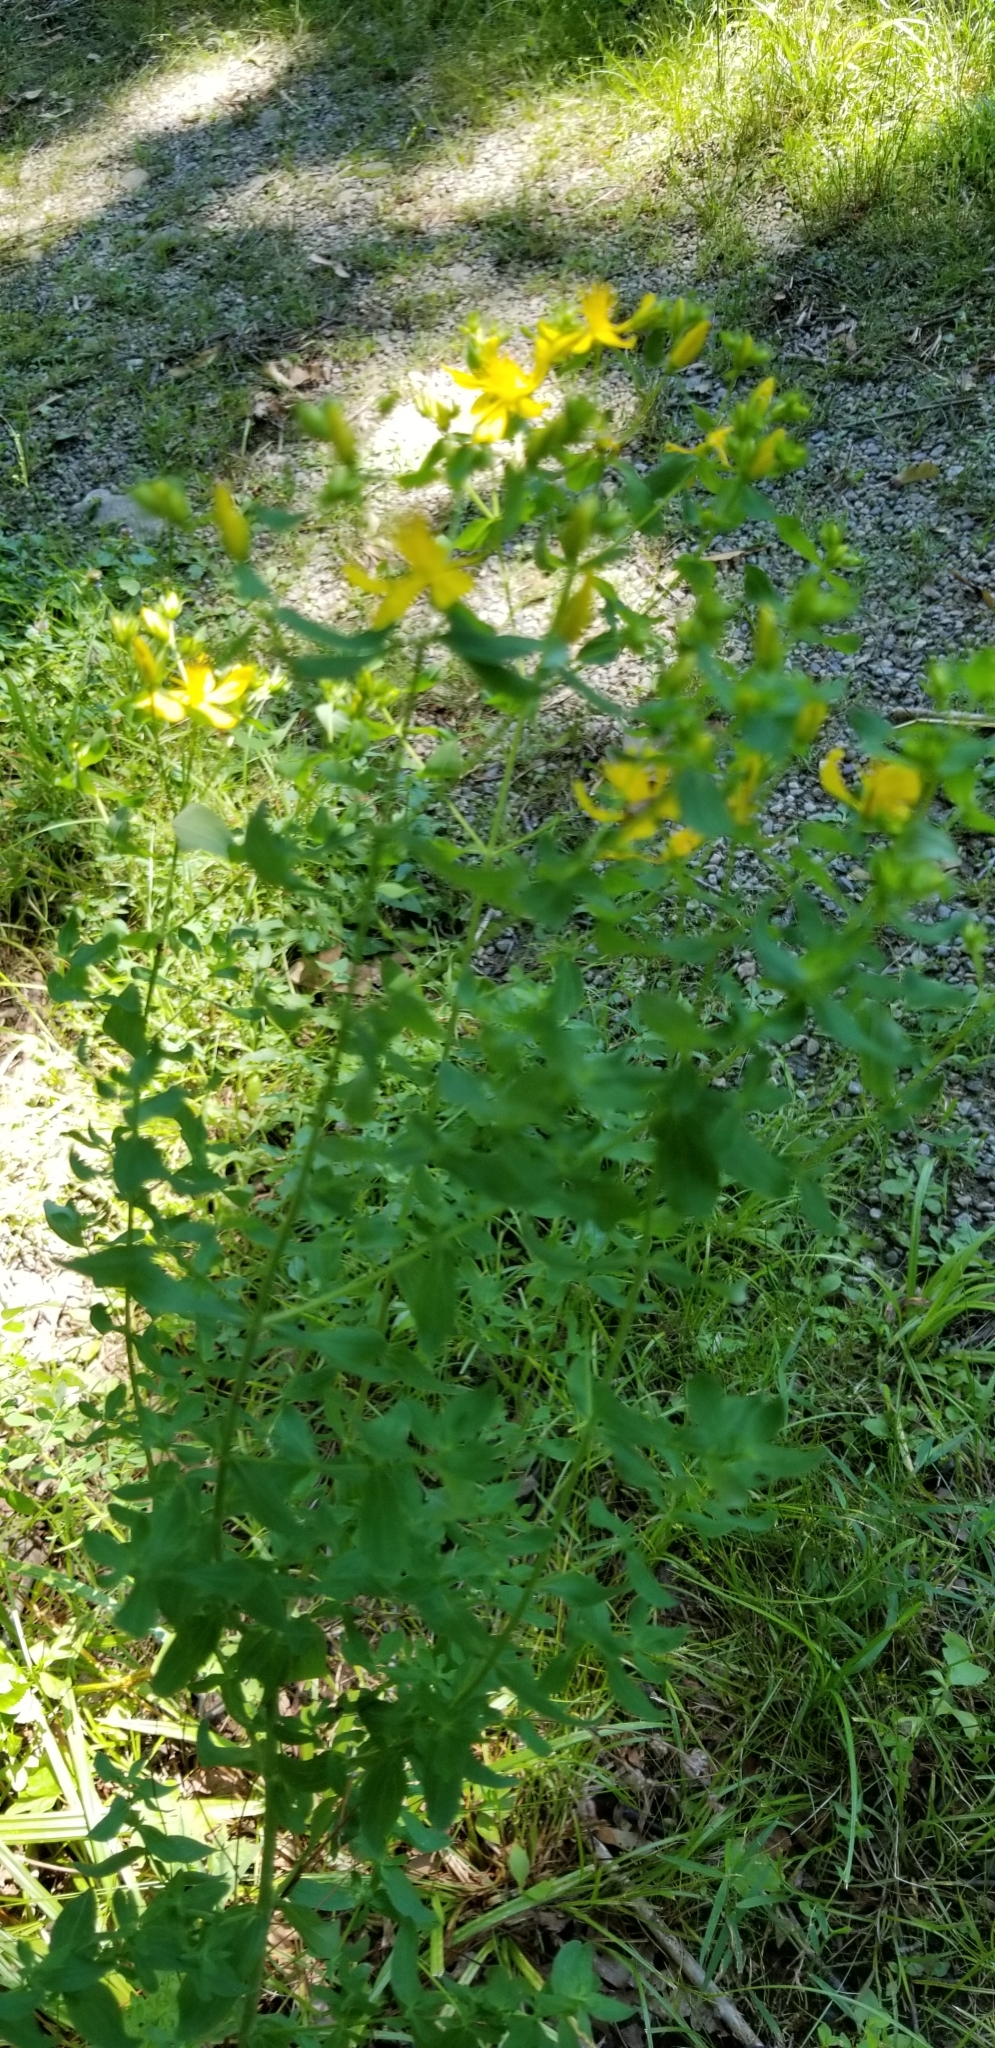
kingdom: Plantae
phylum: Tracheophyta
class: Magnoliopsida
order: Malpighiales
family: Hypericaceae
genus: Hypericum
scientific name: Hypericum perforatum
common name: Common st. johnswort
